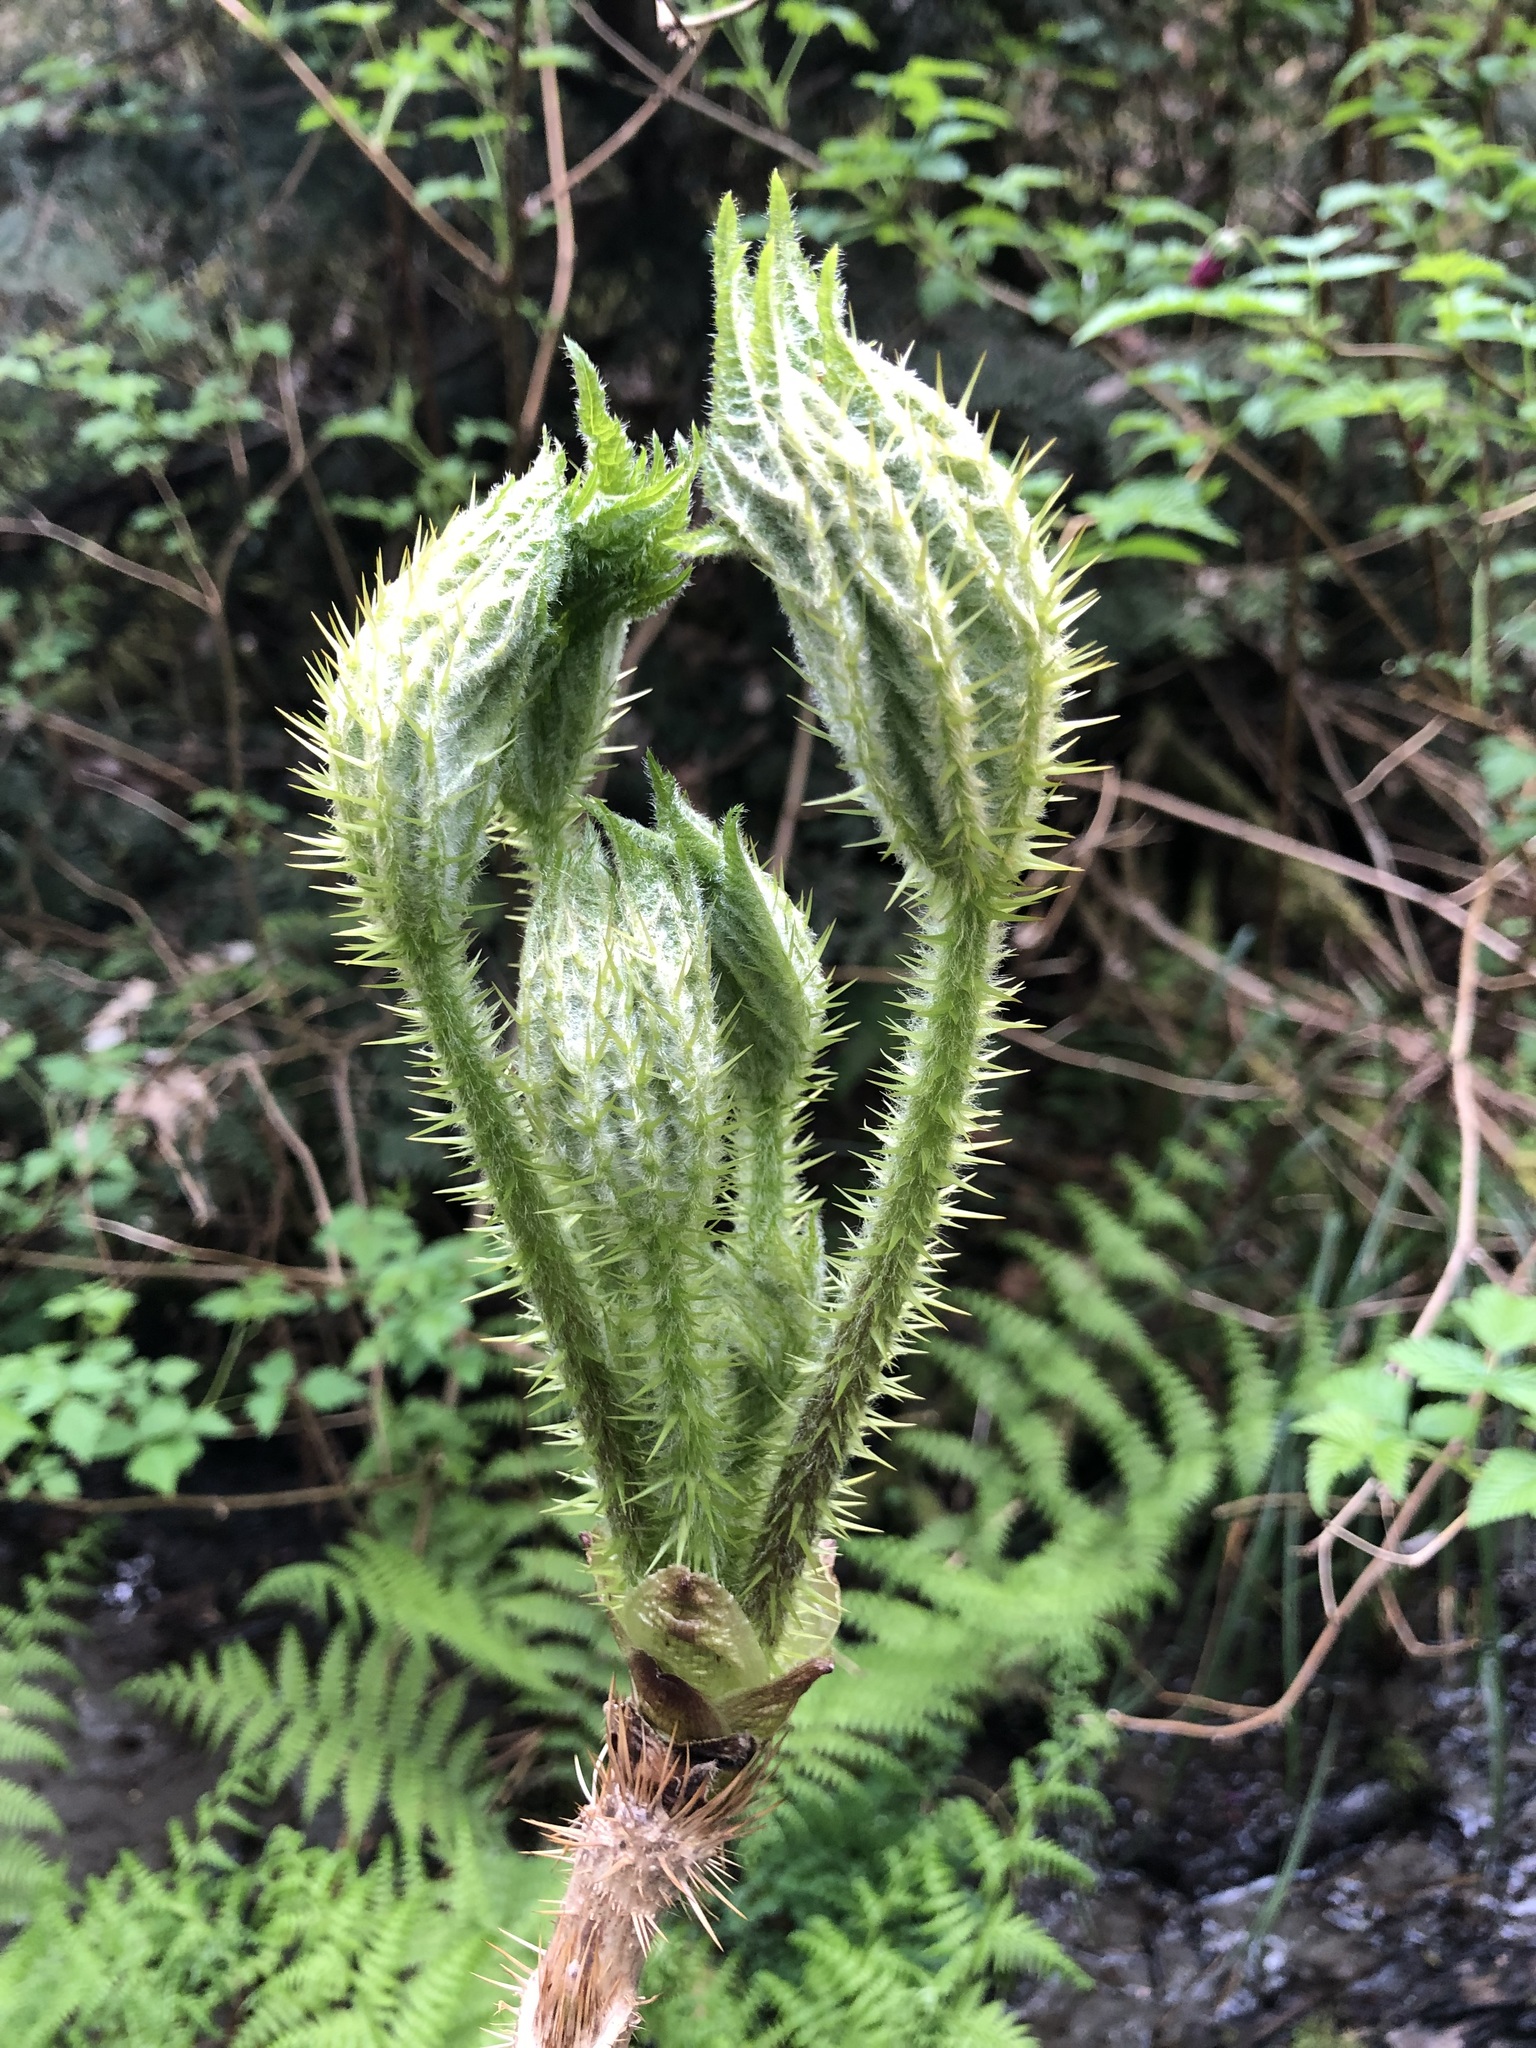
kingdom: Plantae
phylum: Tracheophyta
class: Magnoliopsida
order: Apiales
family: Araliaceae
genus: Oplopanax
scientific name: Oplopanax horridus
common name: Devil's walking-stick
